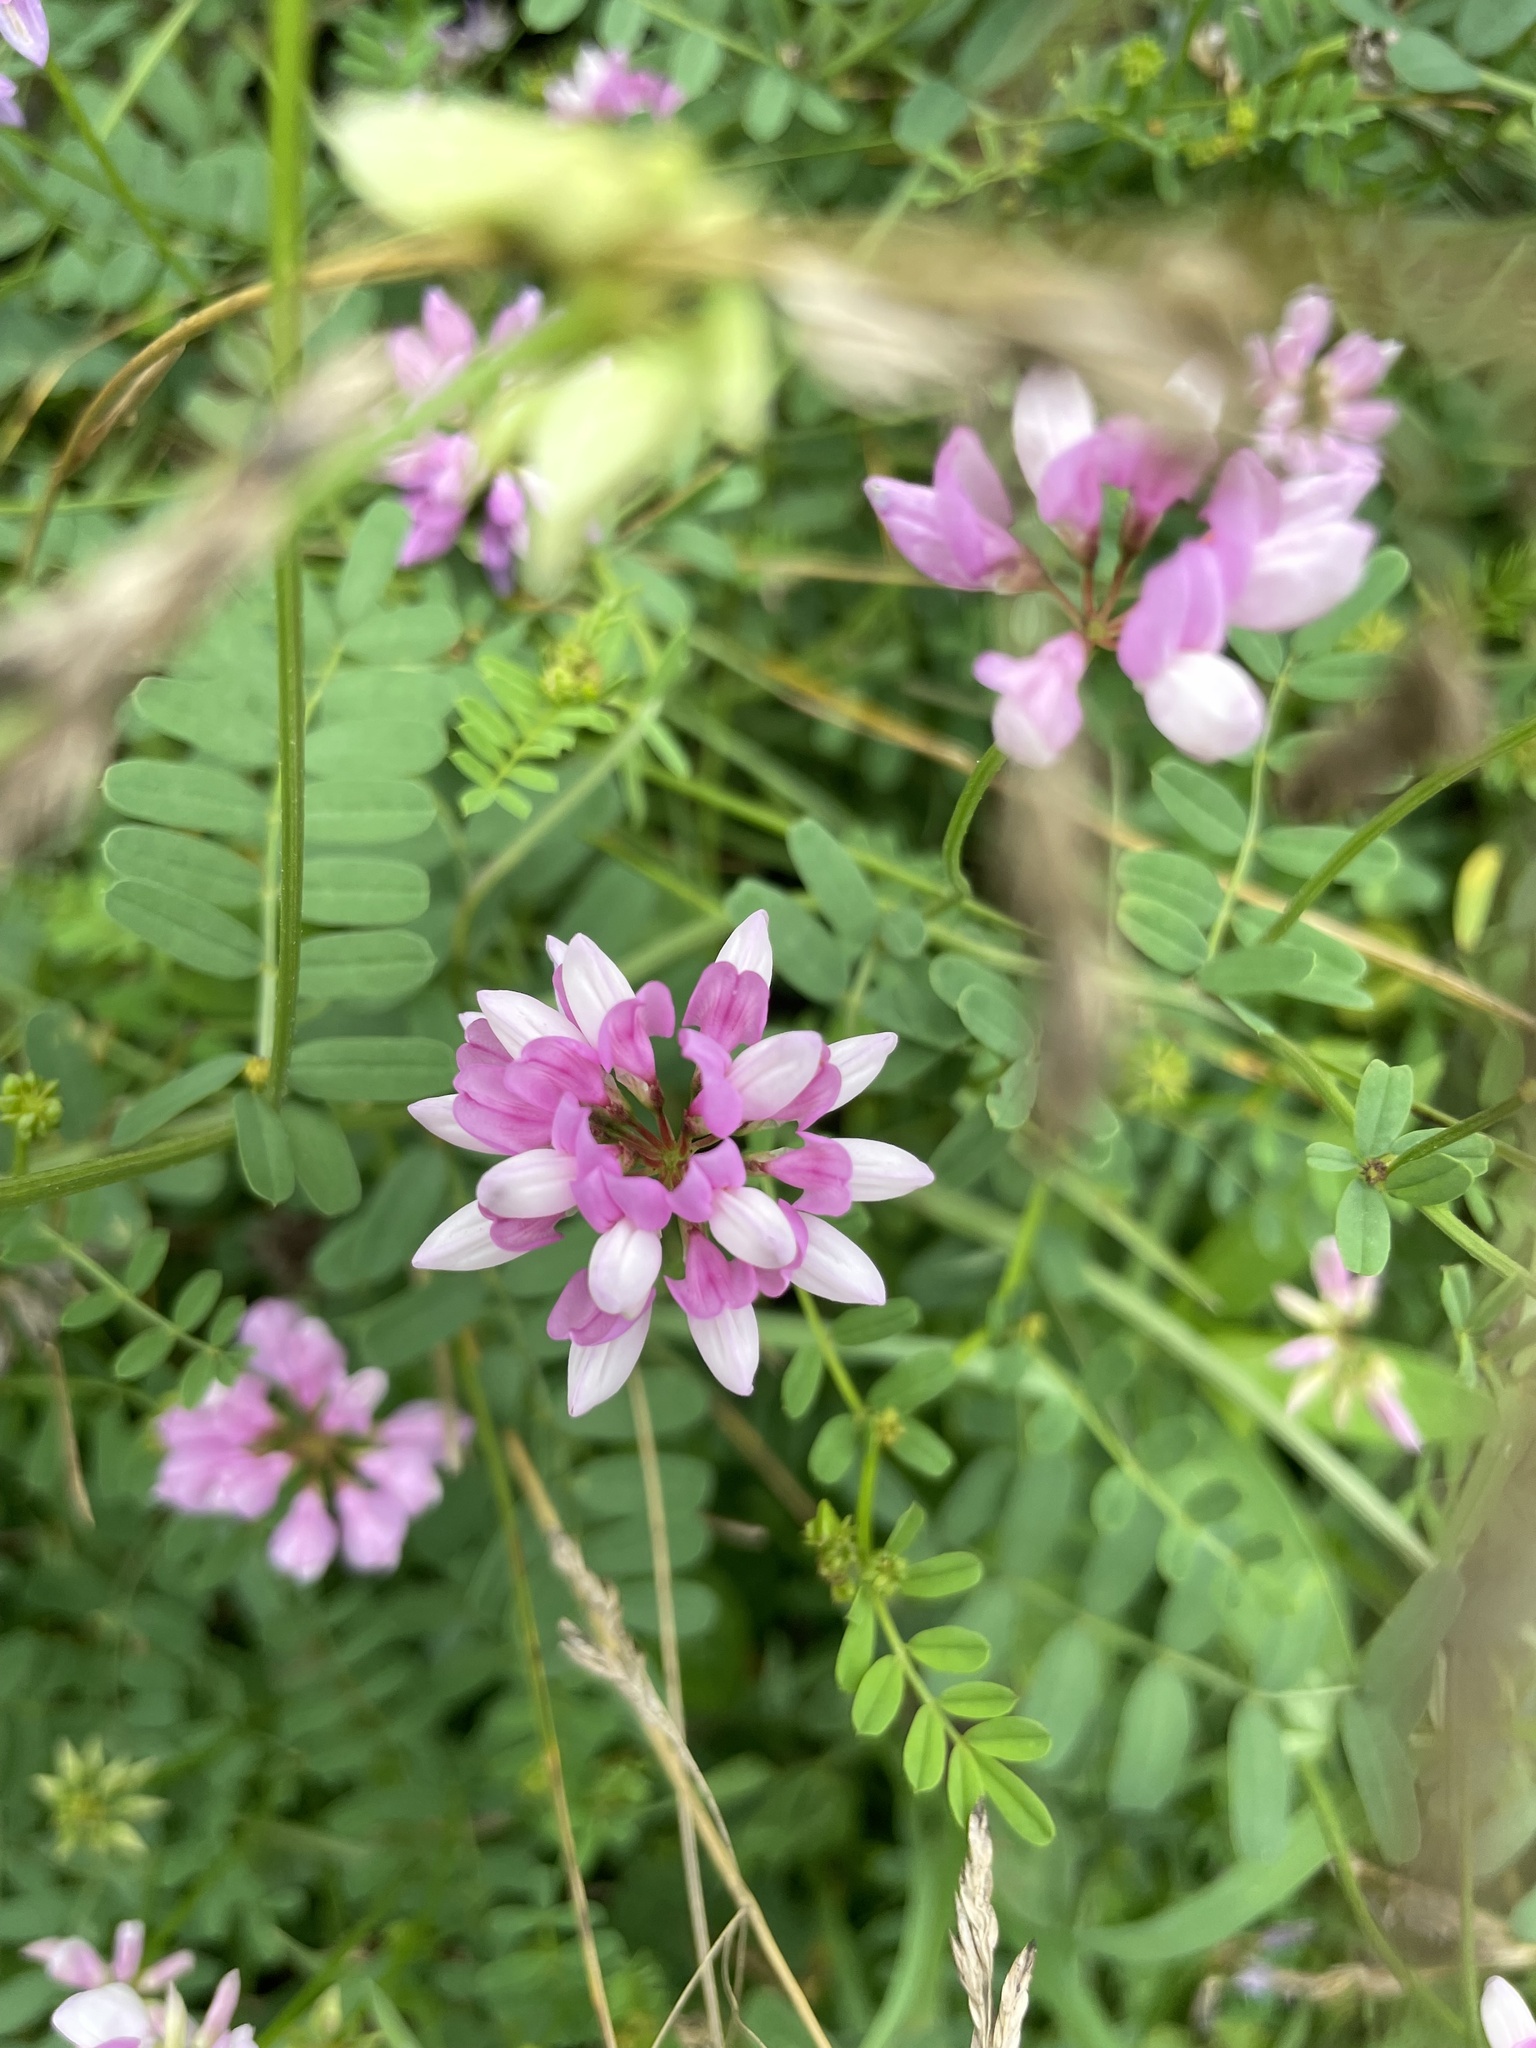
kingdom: Plantae
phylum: Tracheophyta
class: Magnoliopsida
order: Fabales
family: Fabaceae
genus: Coronilla
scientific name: Coronilla varia
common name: Crownvetch
